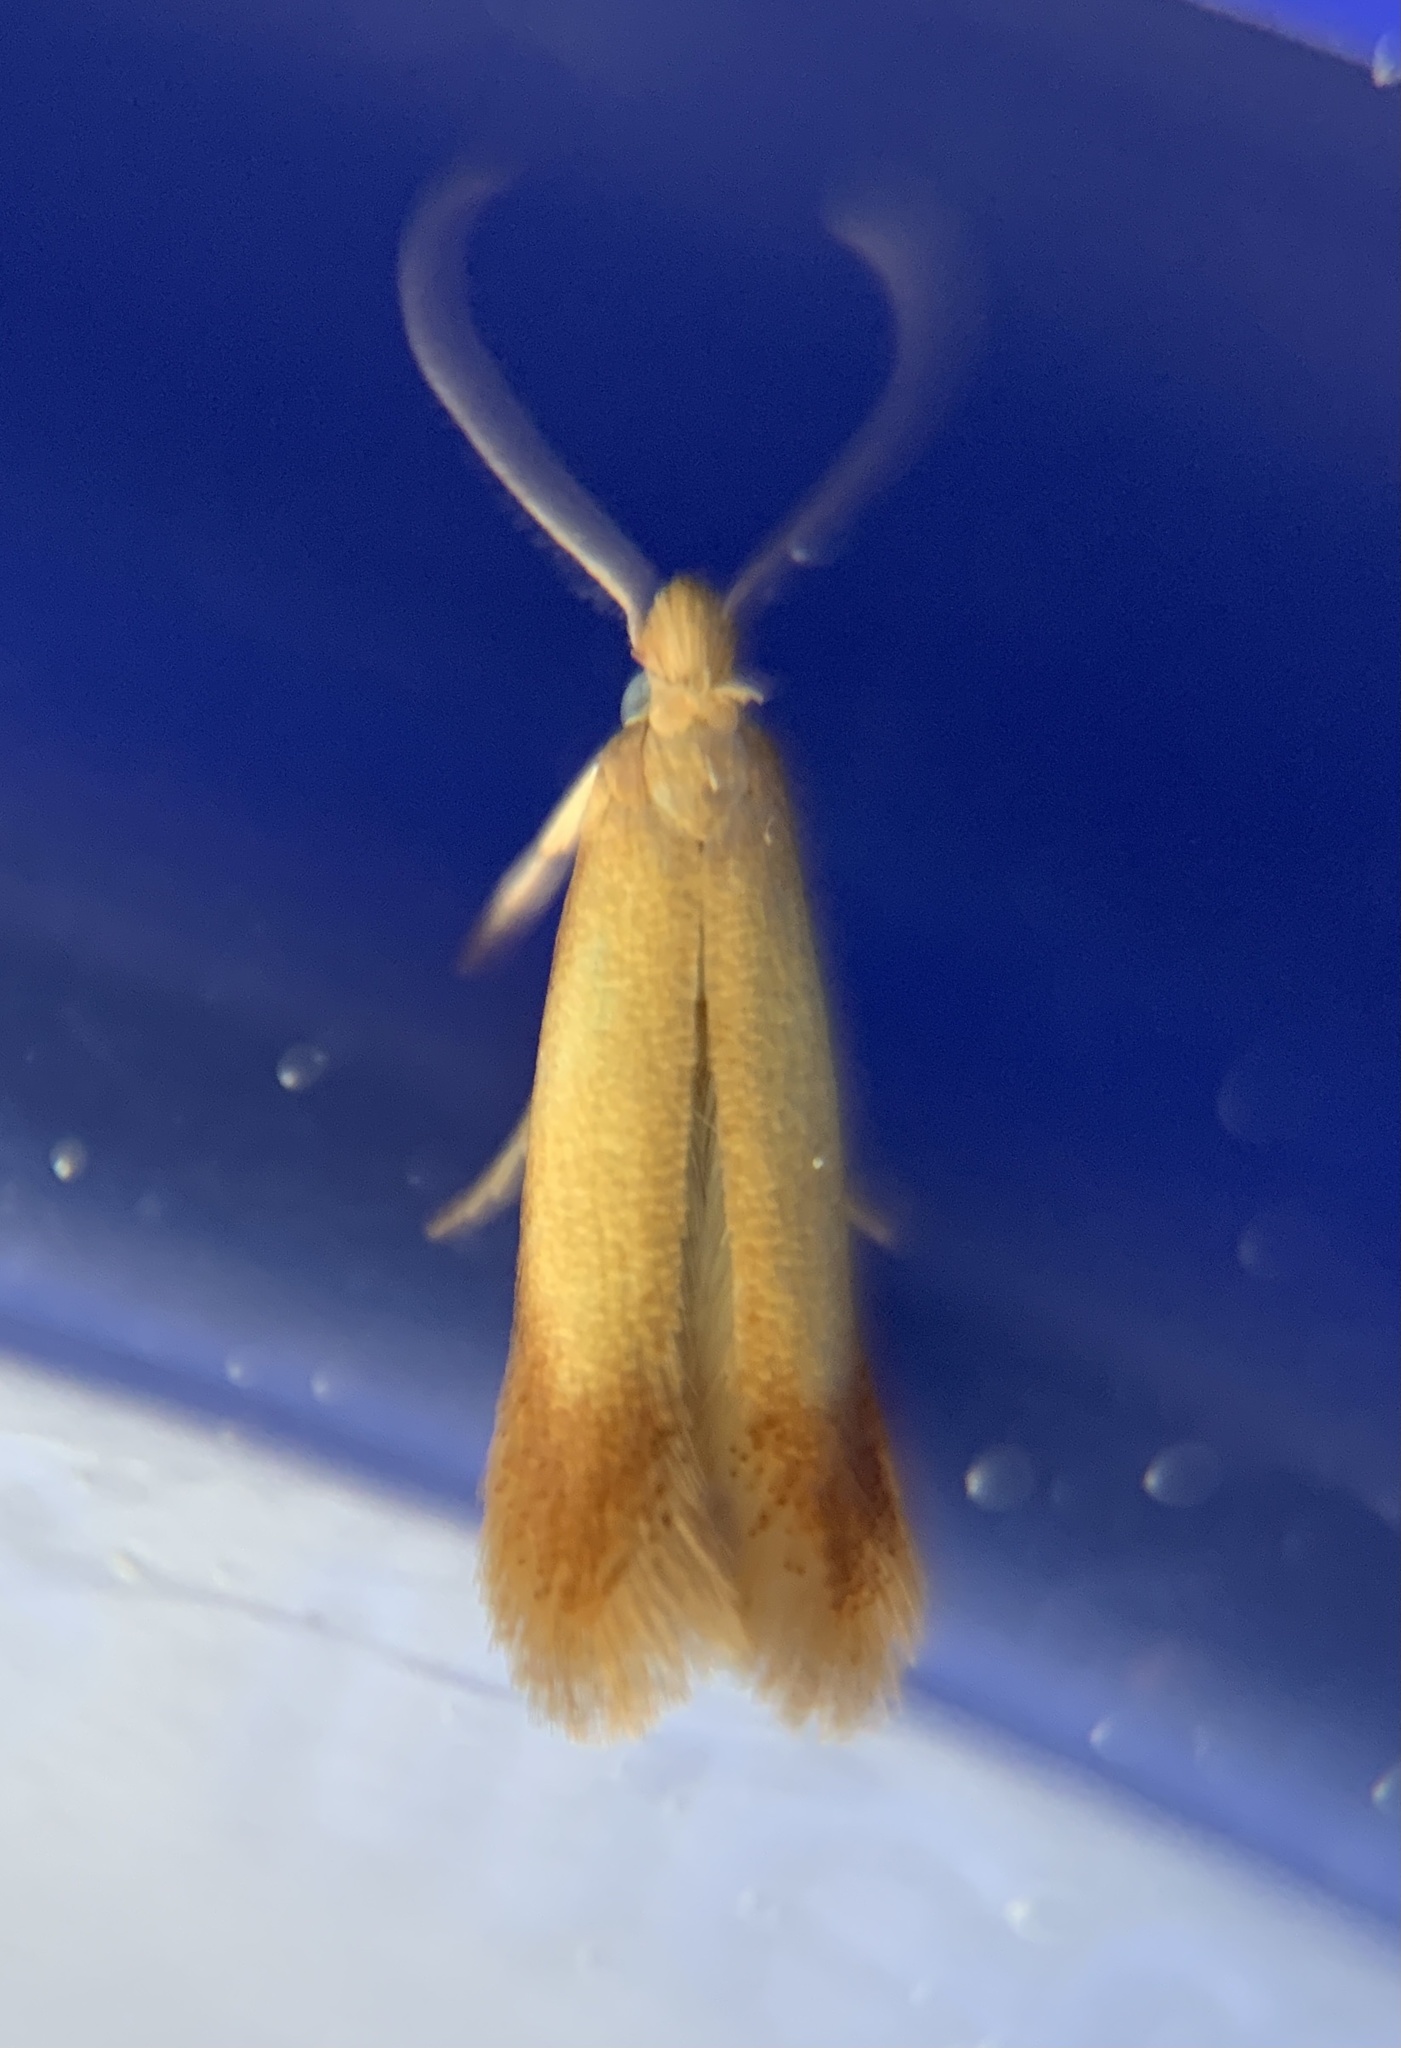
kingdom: Animalia
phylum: Arthropoda
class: Insecta
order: Lepidoptera
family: Tischeriidae
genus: Coptotriche
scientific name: Coptotriche citrinipennella
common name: The golden sweeper
